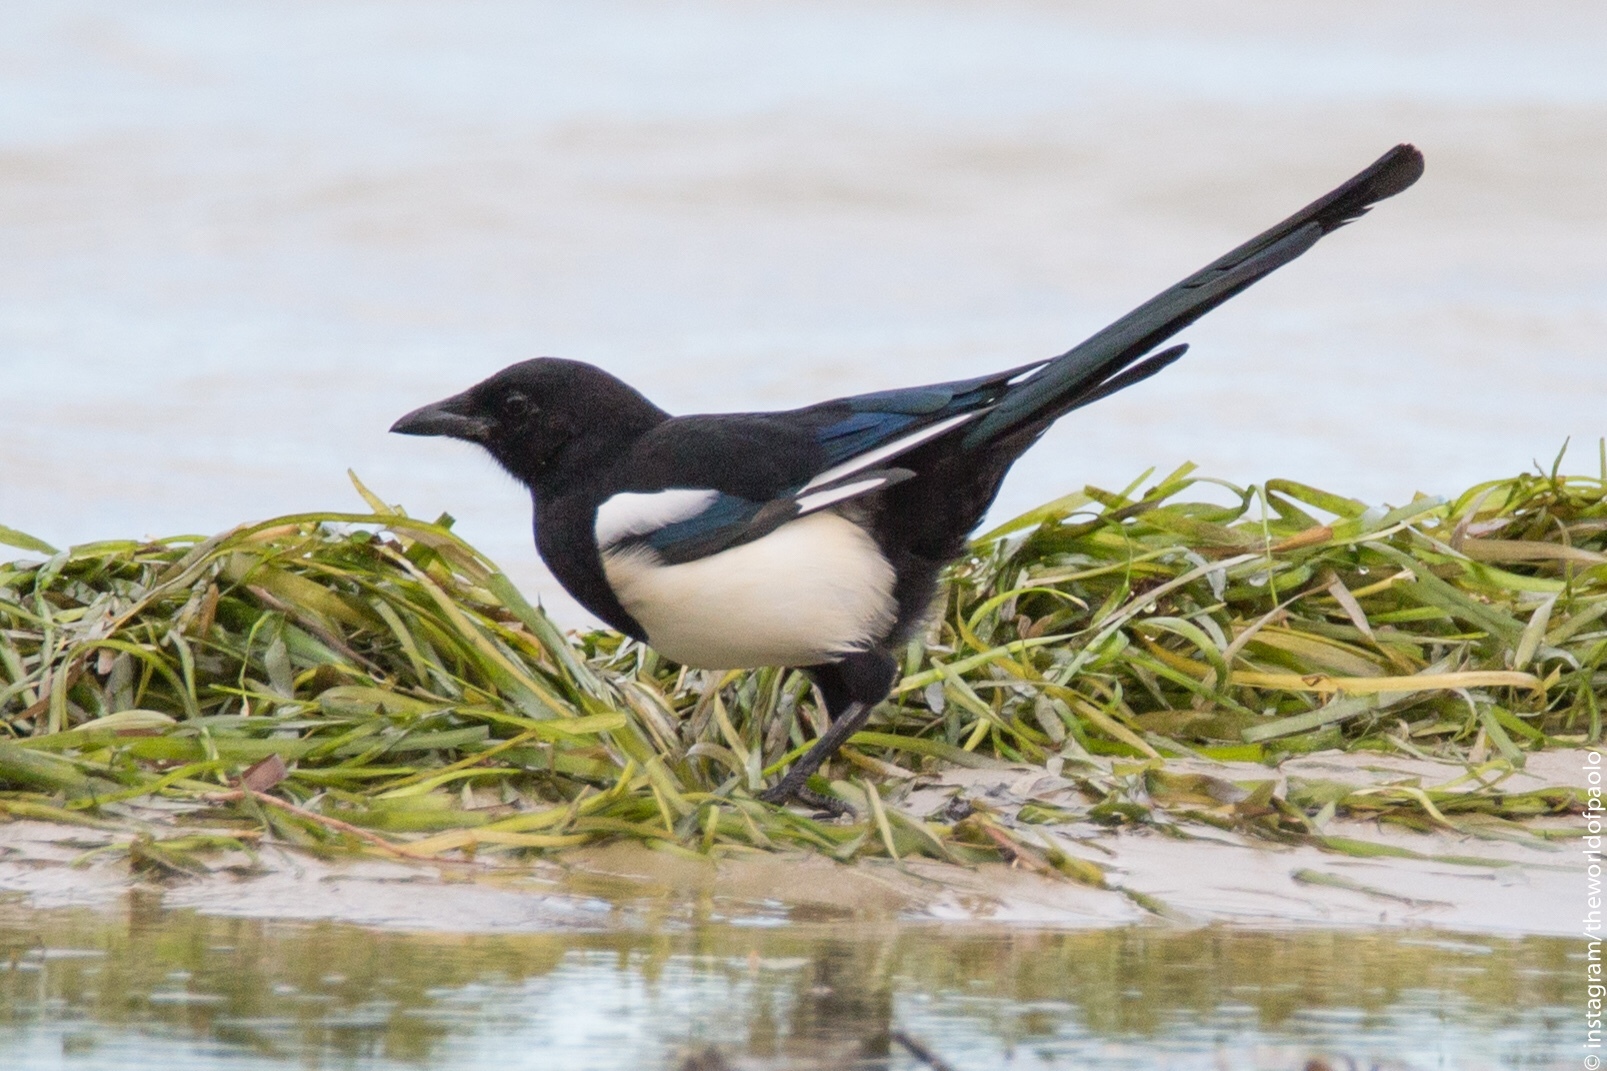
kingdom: Animalia
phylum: Chordata
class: Aves
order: Passeriformes
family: Corvidae
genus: Pica
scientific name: Pica pica
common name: Eurasian magpie
